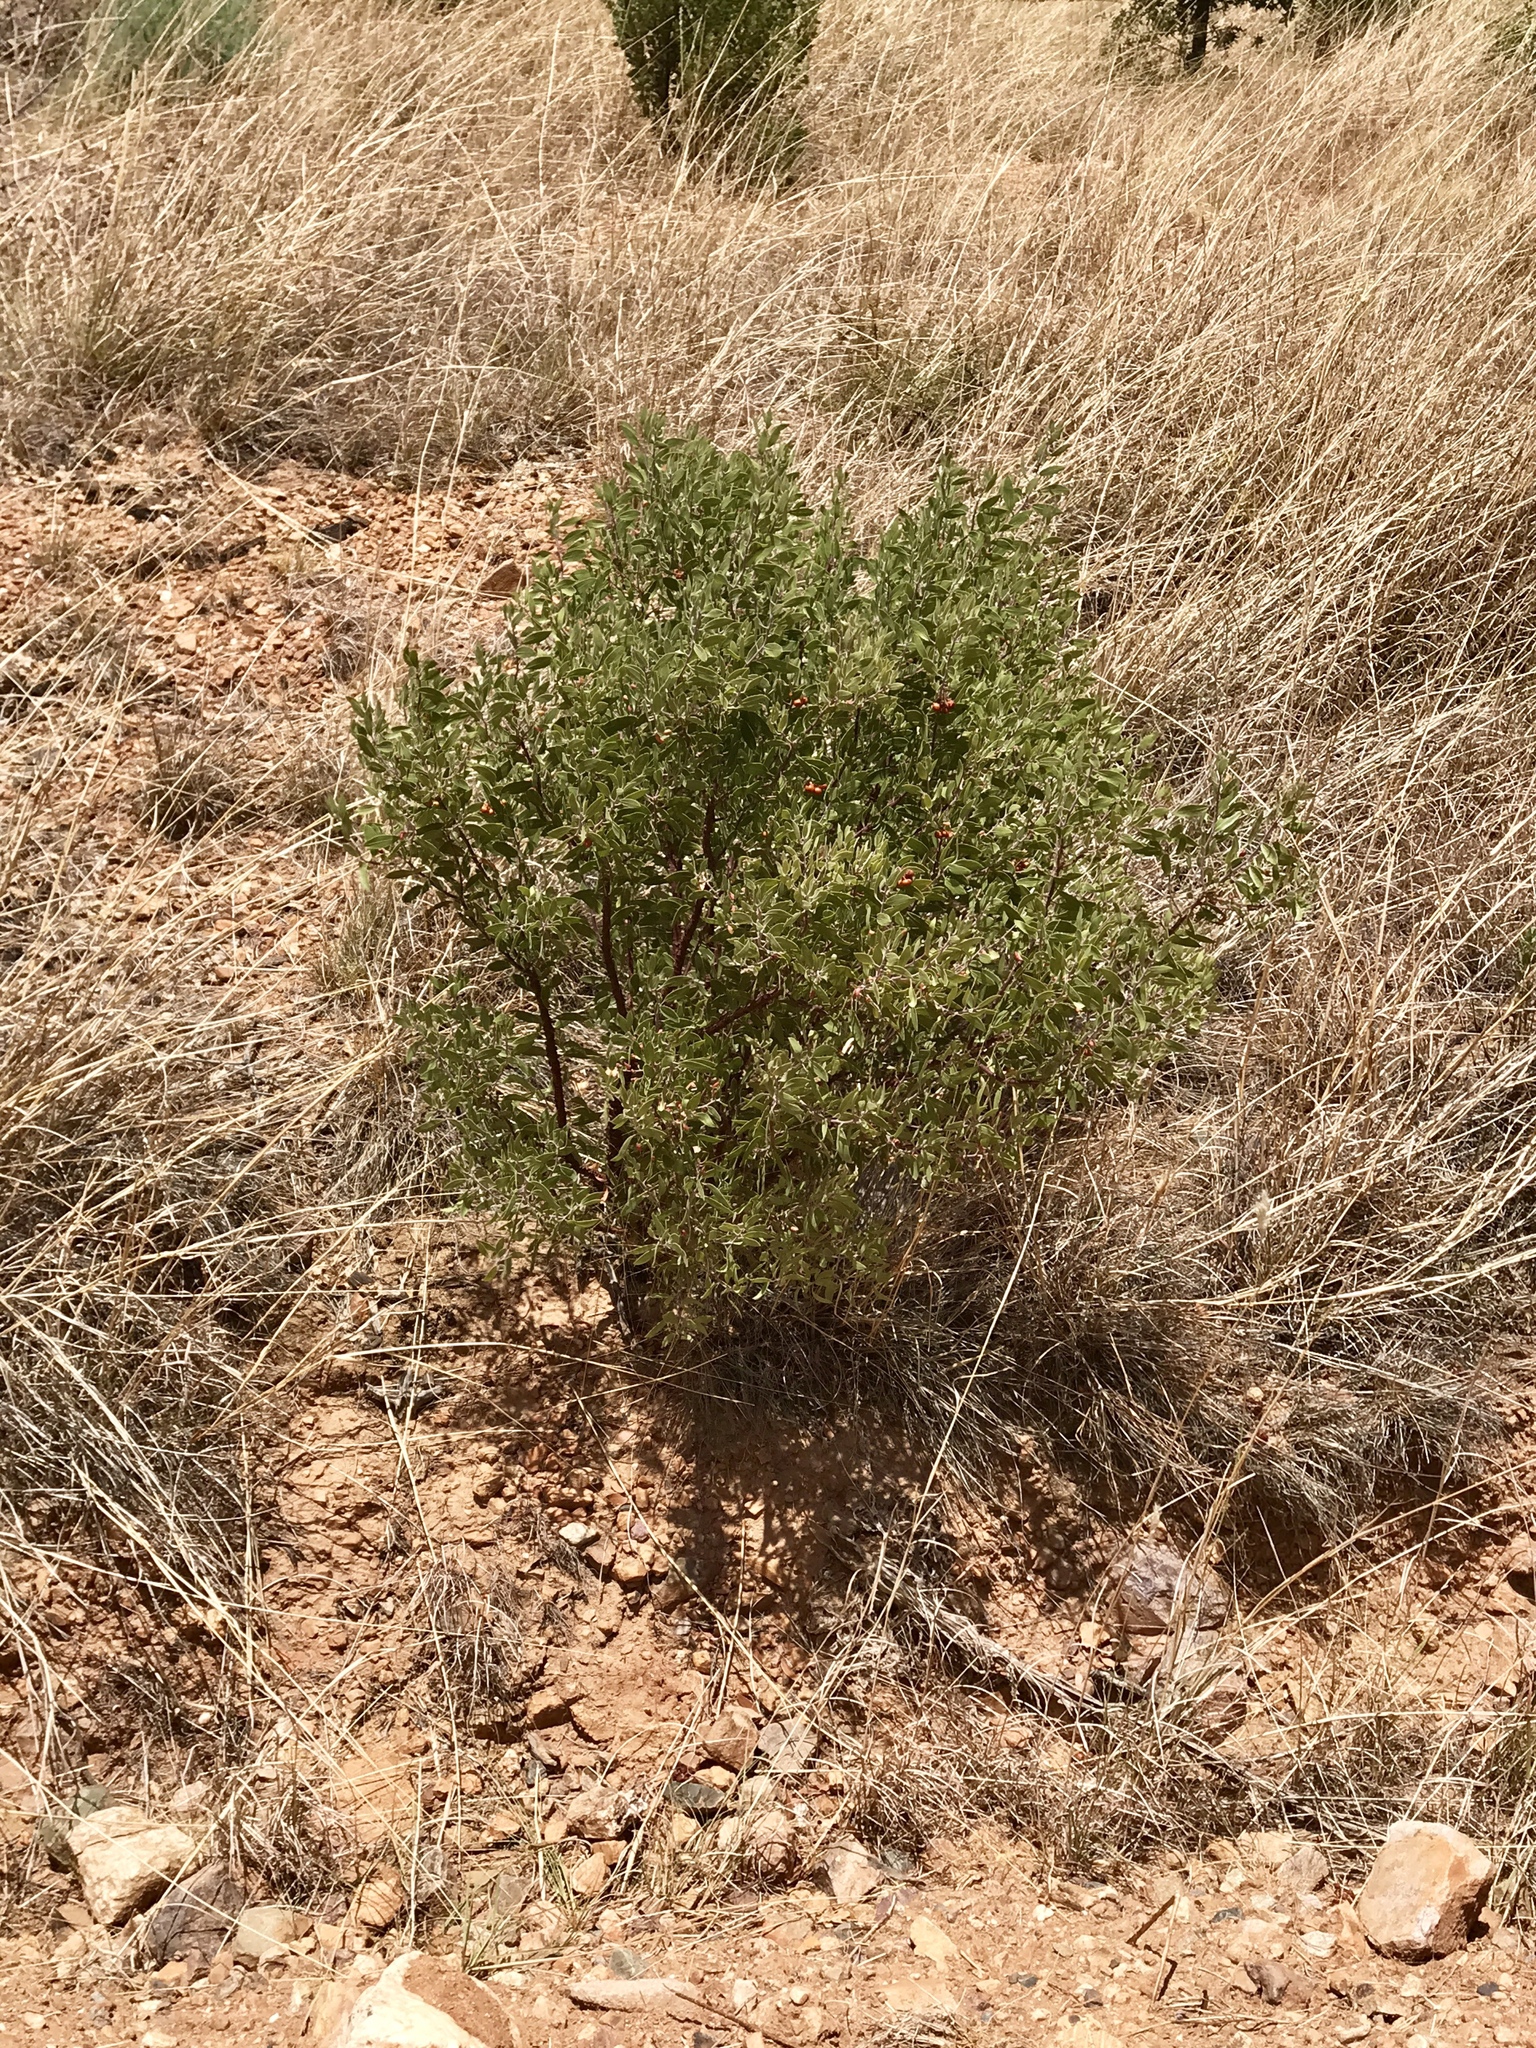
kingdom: Plantae
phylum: Tracheophyta
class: Magnoliopsida
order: Ericales
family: Ericaceae
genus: Arctostaphylos
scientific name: Arctostaphylos pungens
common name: Mexican manzanita
